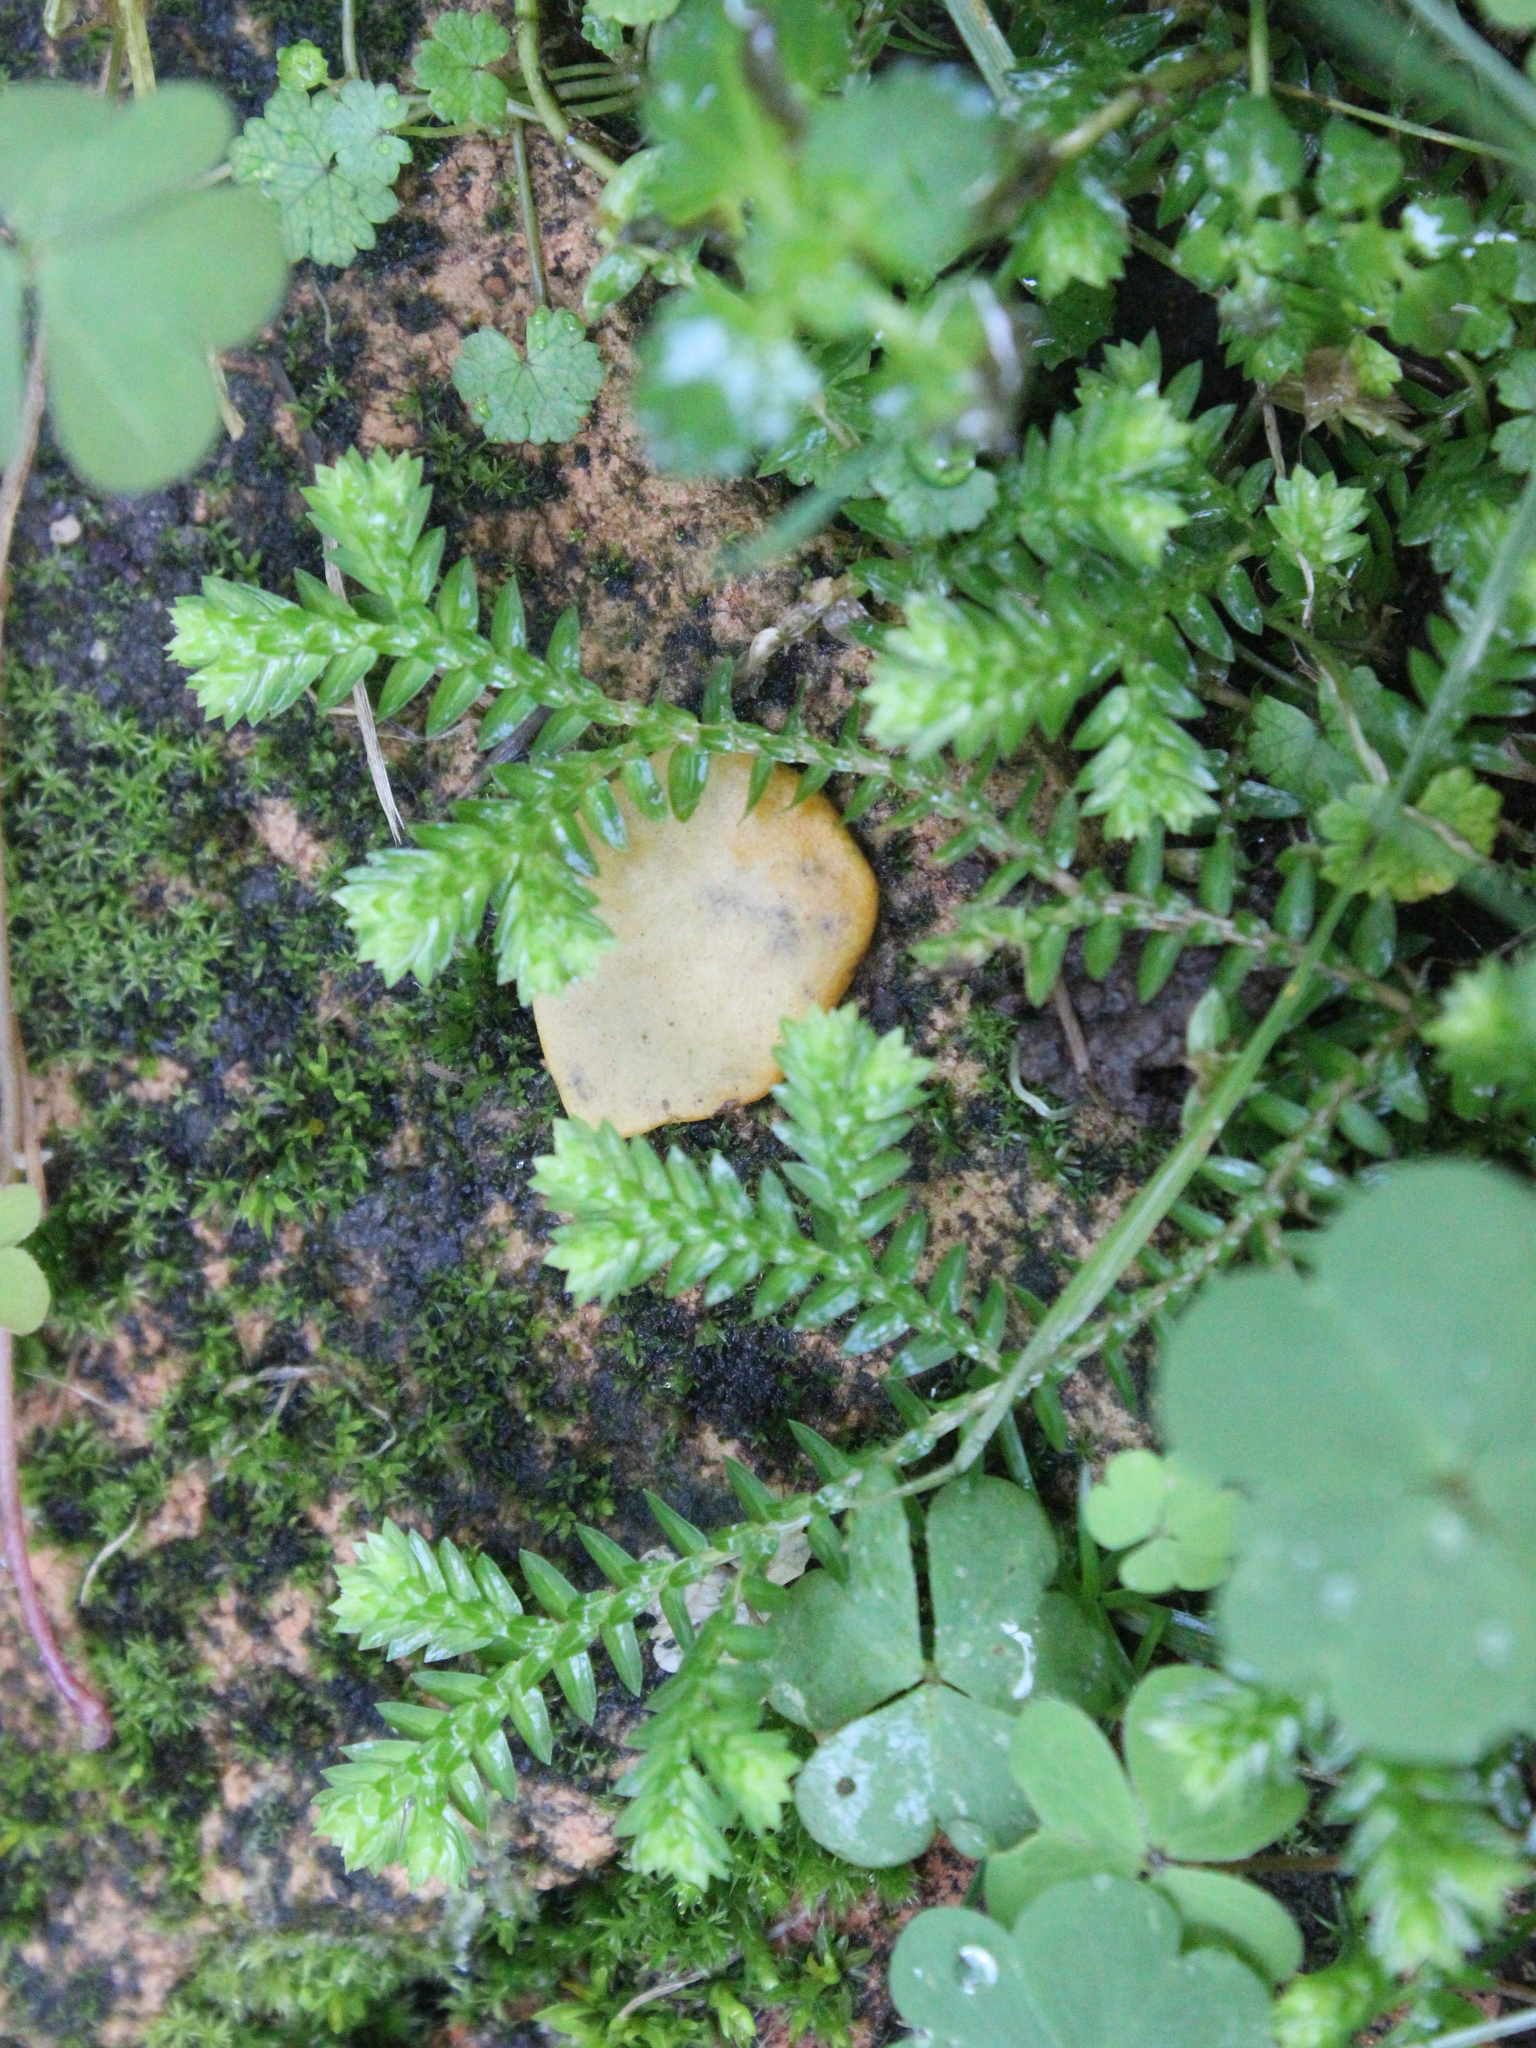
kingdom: Plantae
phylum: Tracheophyta
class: Lycopodiopsida
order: Selaginellales
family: Selaginellaceae
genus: Selaginella
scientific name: Selaginella kraussiana
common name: Krauss' spikemoss
